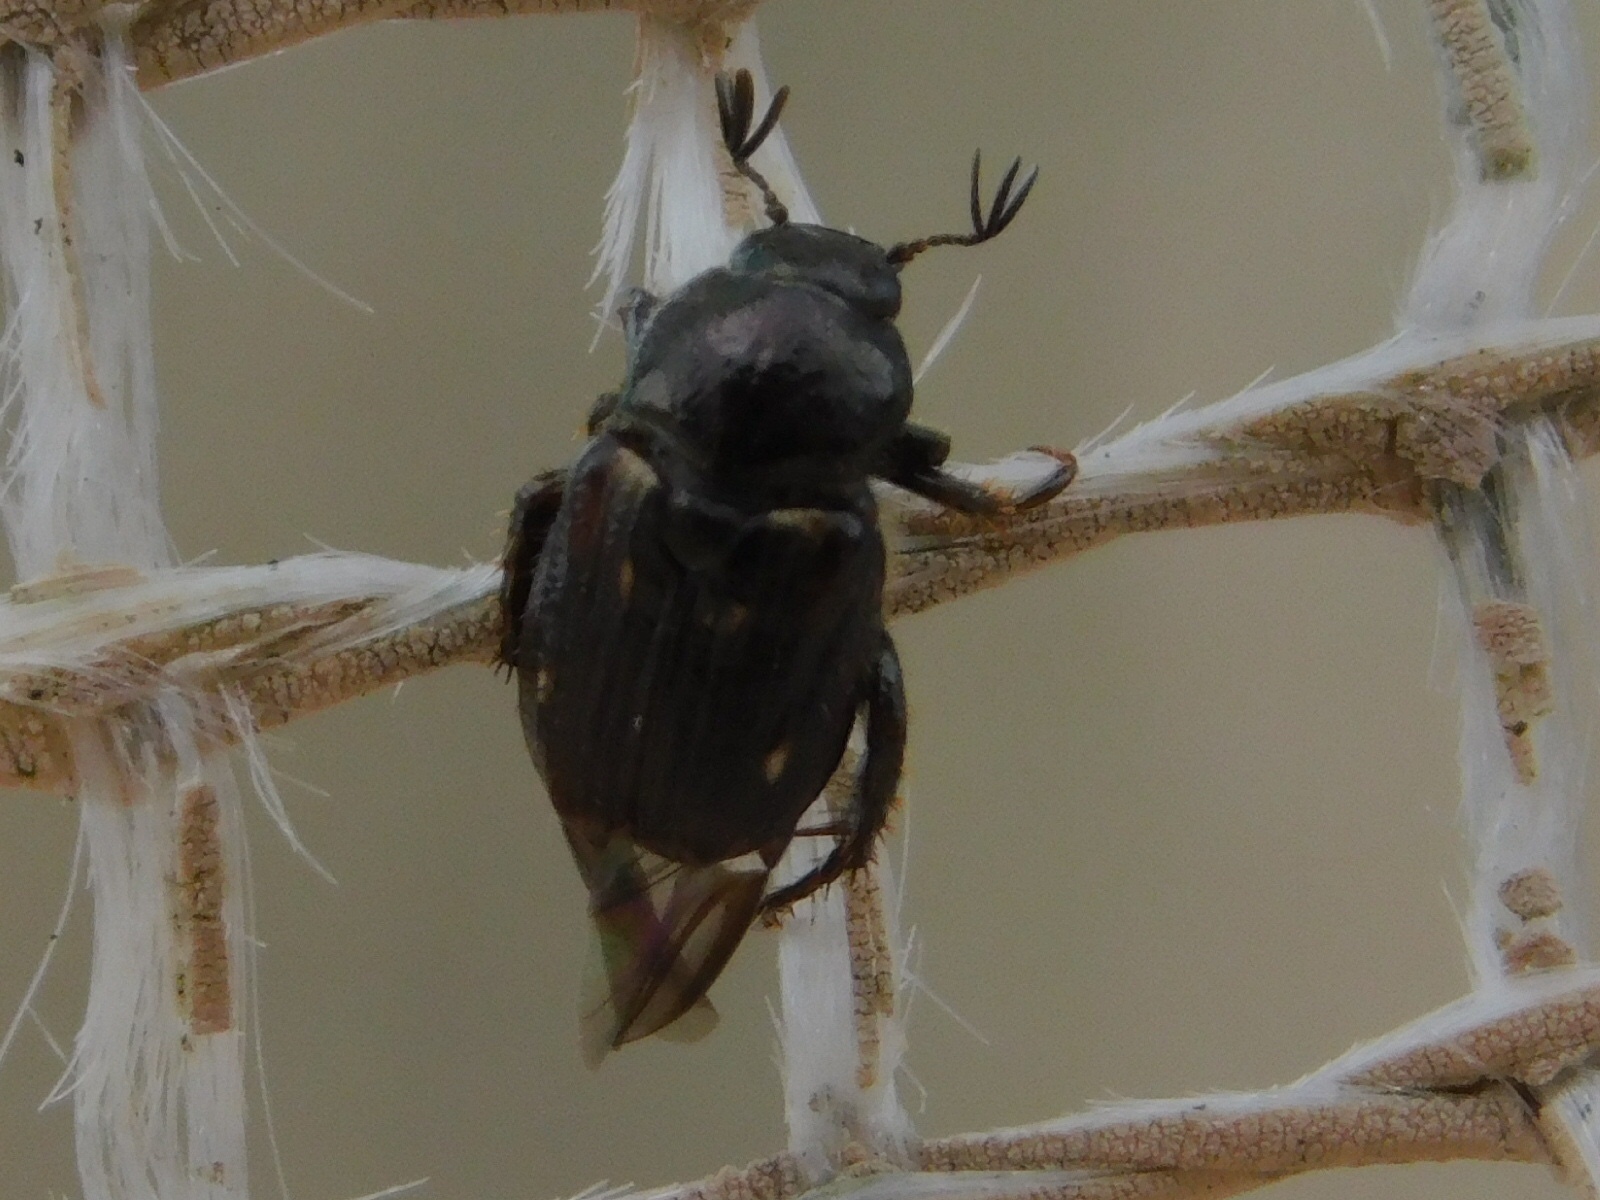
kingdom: Animalia
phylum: Arthropoda
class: Insecta
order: Coleoptera
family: Scarabaeidae
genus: Strigoderma
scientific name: Strigoderma pygmaea
